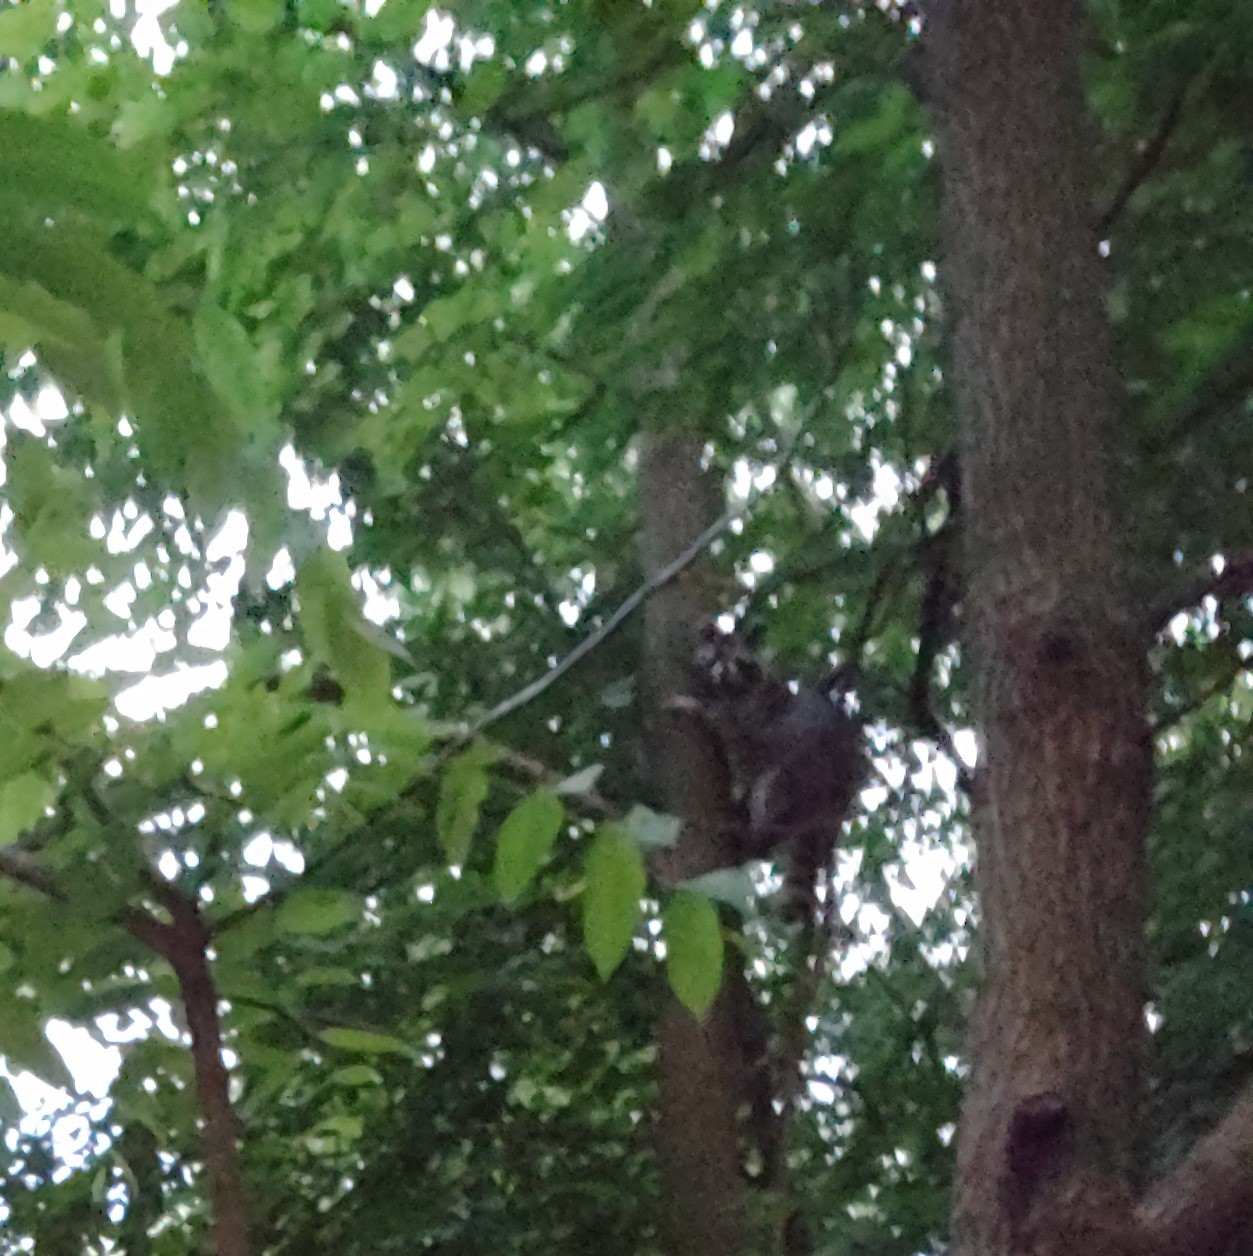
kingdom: Animalia
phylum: Chordata
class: Mammalia
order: Carnivora
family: Procyonidae
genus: Procyon
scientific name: Procyon lotor
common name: Raccoon
